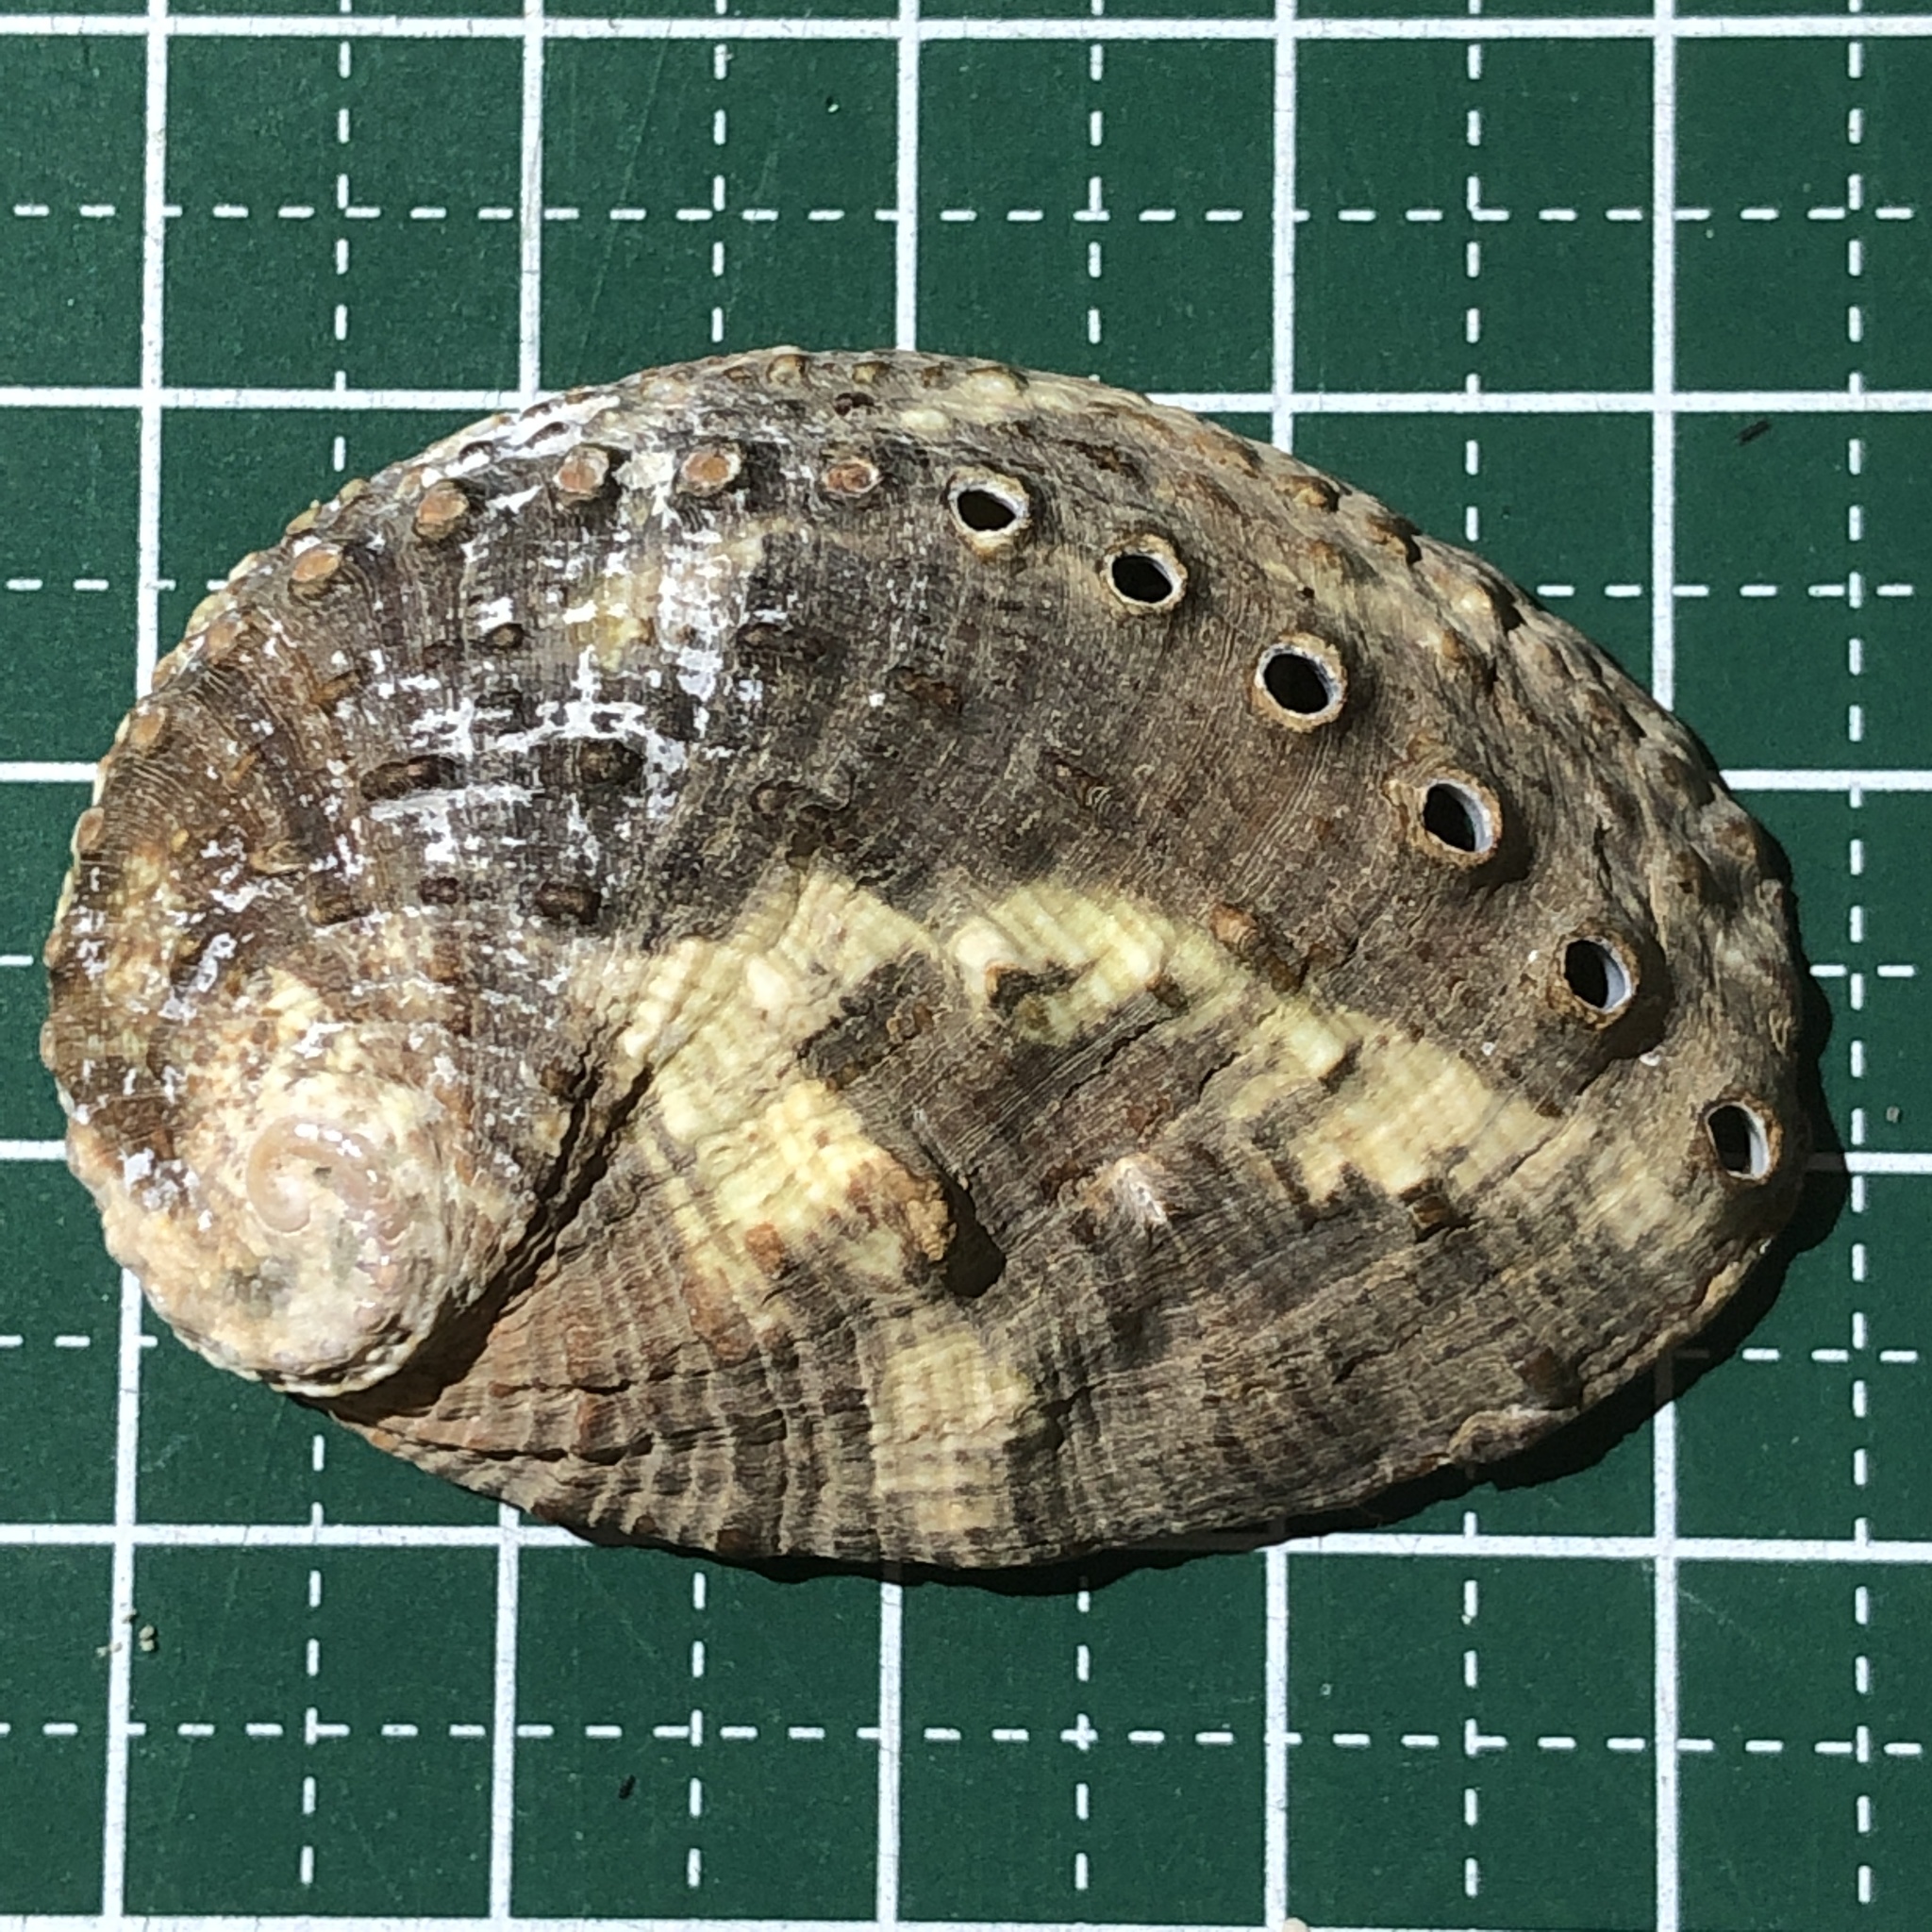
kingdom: Animalia
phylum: Mollusca
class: Gastropoda
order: Lepetellida
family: Haliotidae
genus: Haliotis
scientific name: Haliotis varia
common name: Variable abalone
